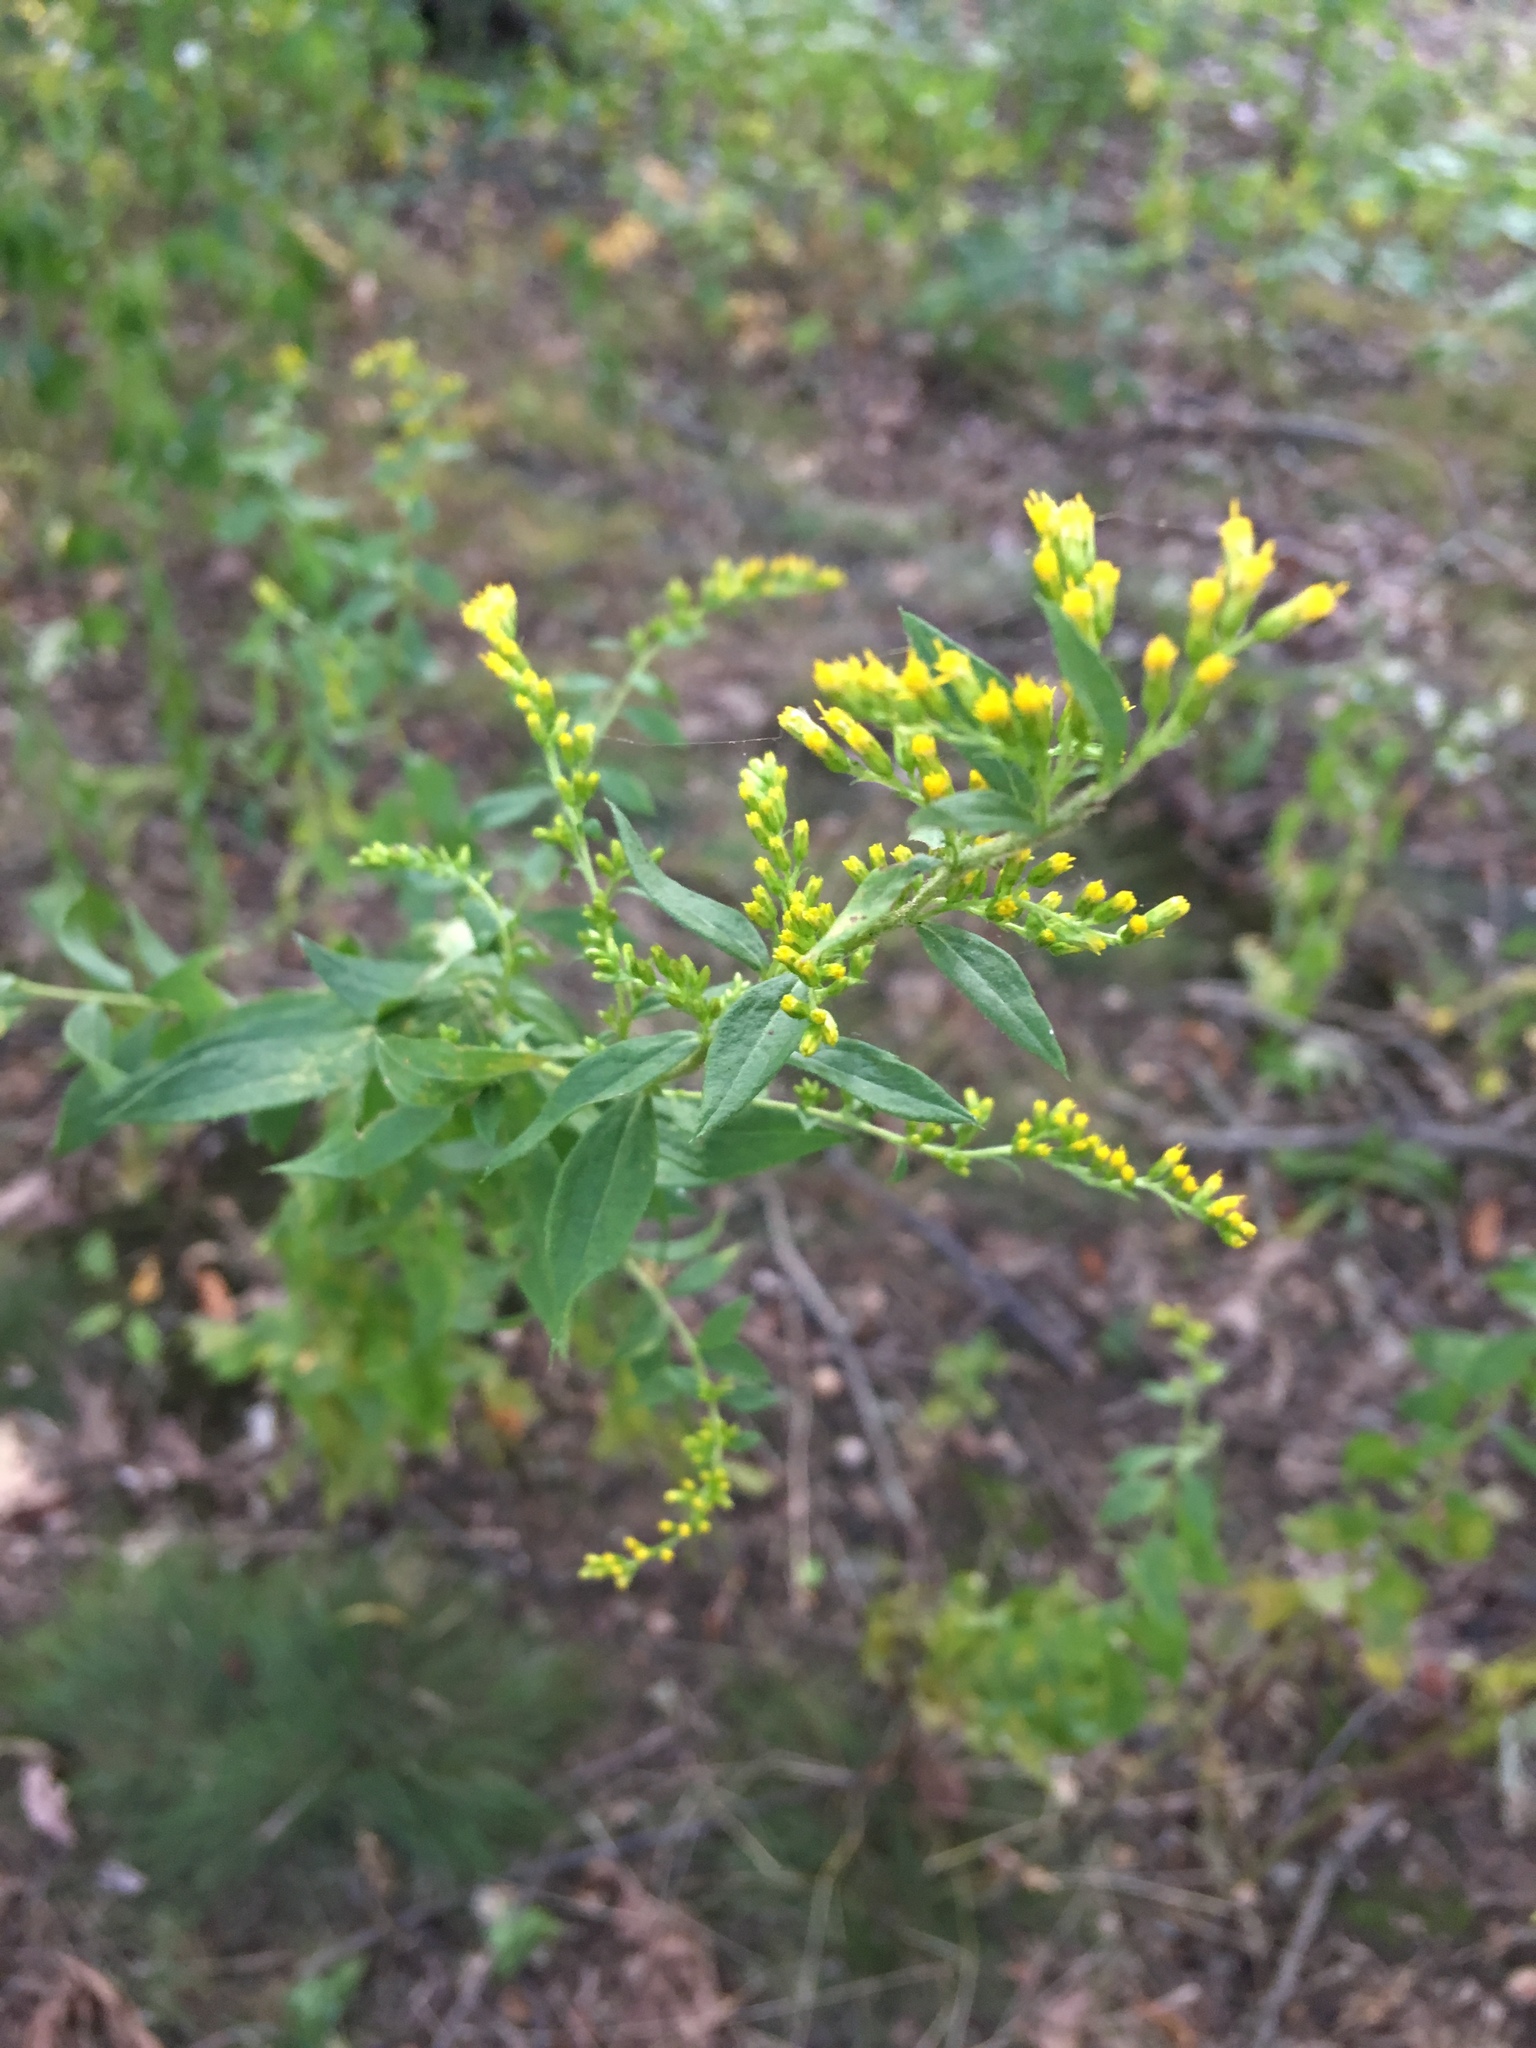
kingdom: Plantae
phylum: Tracheophyta
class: Magnoliopsida
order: Asterales
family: Asteraceae
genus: Solidago
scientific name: Solidago rugosa
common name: Rough-stemmed goldenrod
